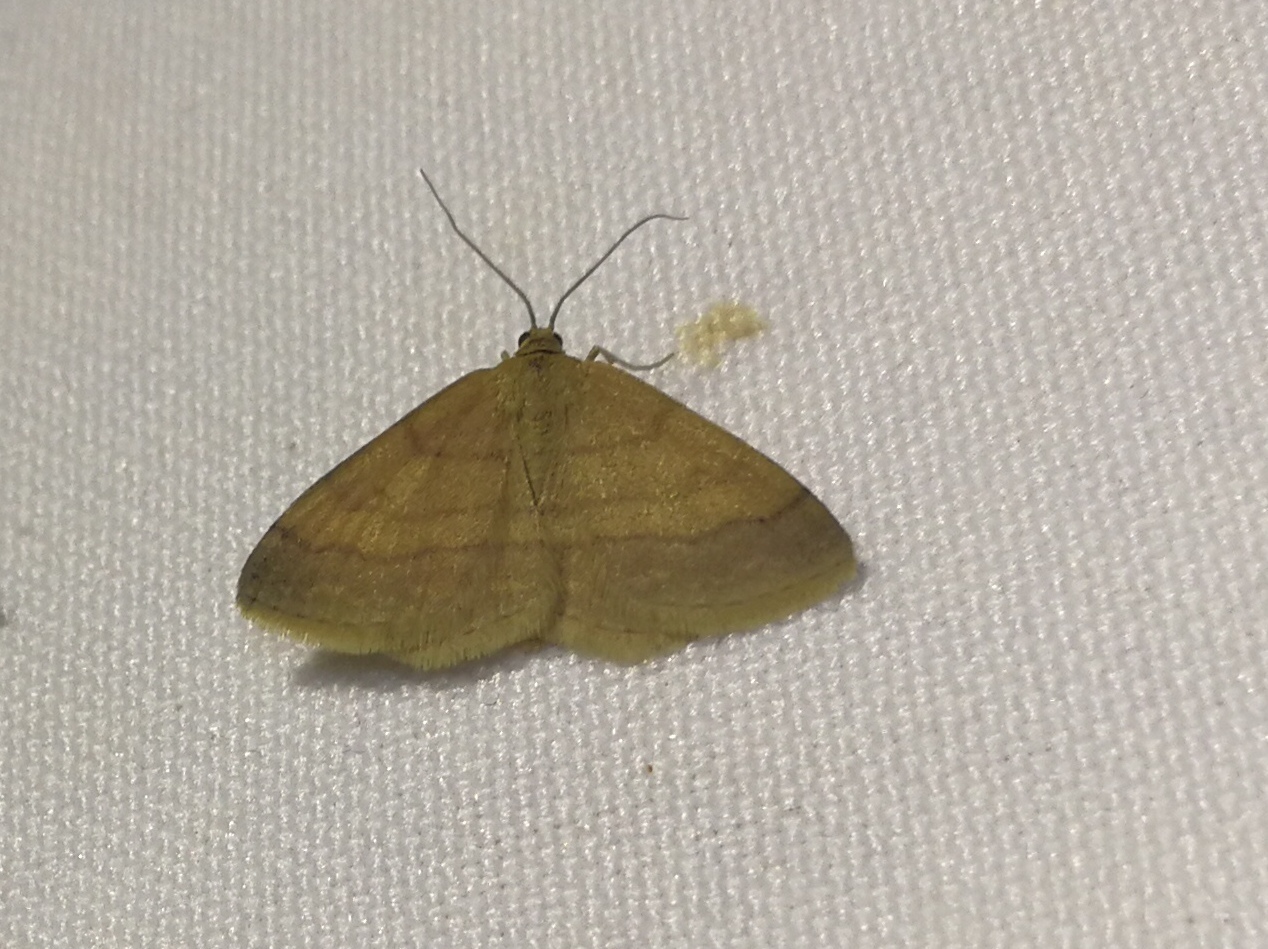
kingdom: Animalia
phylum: Arthropoda
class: Insecta
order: Lepidoptera
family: Geometridae
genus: Scopula
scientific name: Scopula rubiginata
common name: Tawny wave
